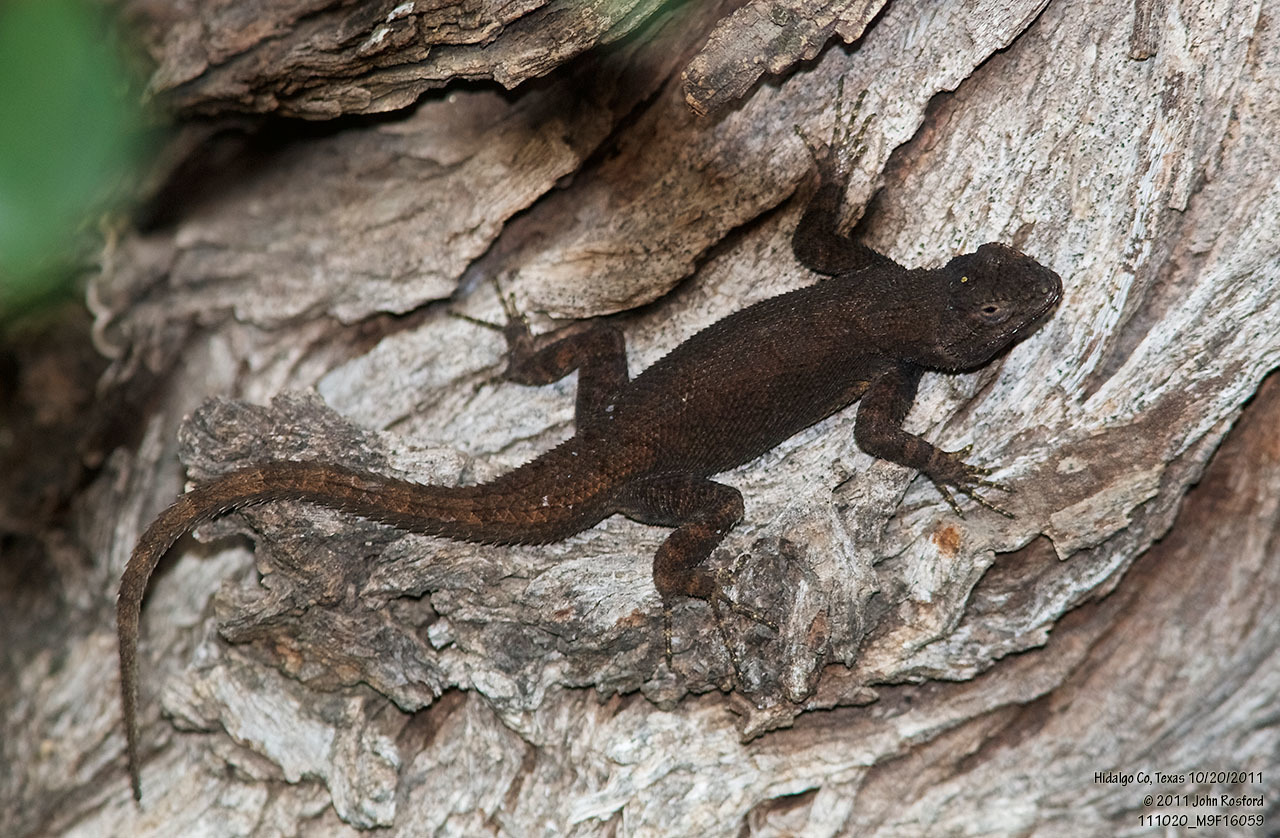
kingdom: Animalia
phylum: Chordata
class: Squamata
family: Phrynosomatidae
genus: Sceloporus
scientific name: Sceloporus grammicus
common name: Mesquite lizard
